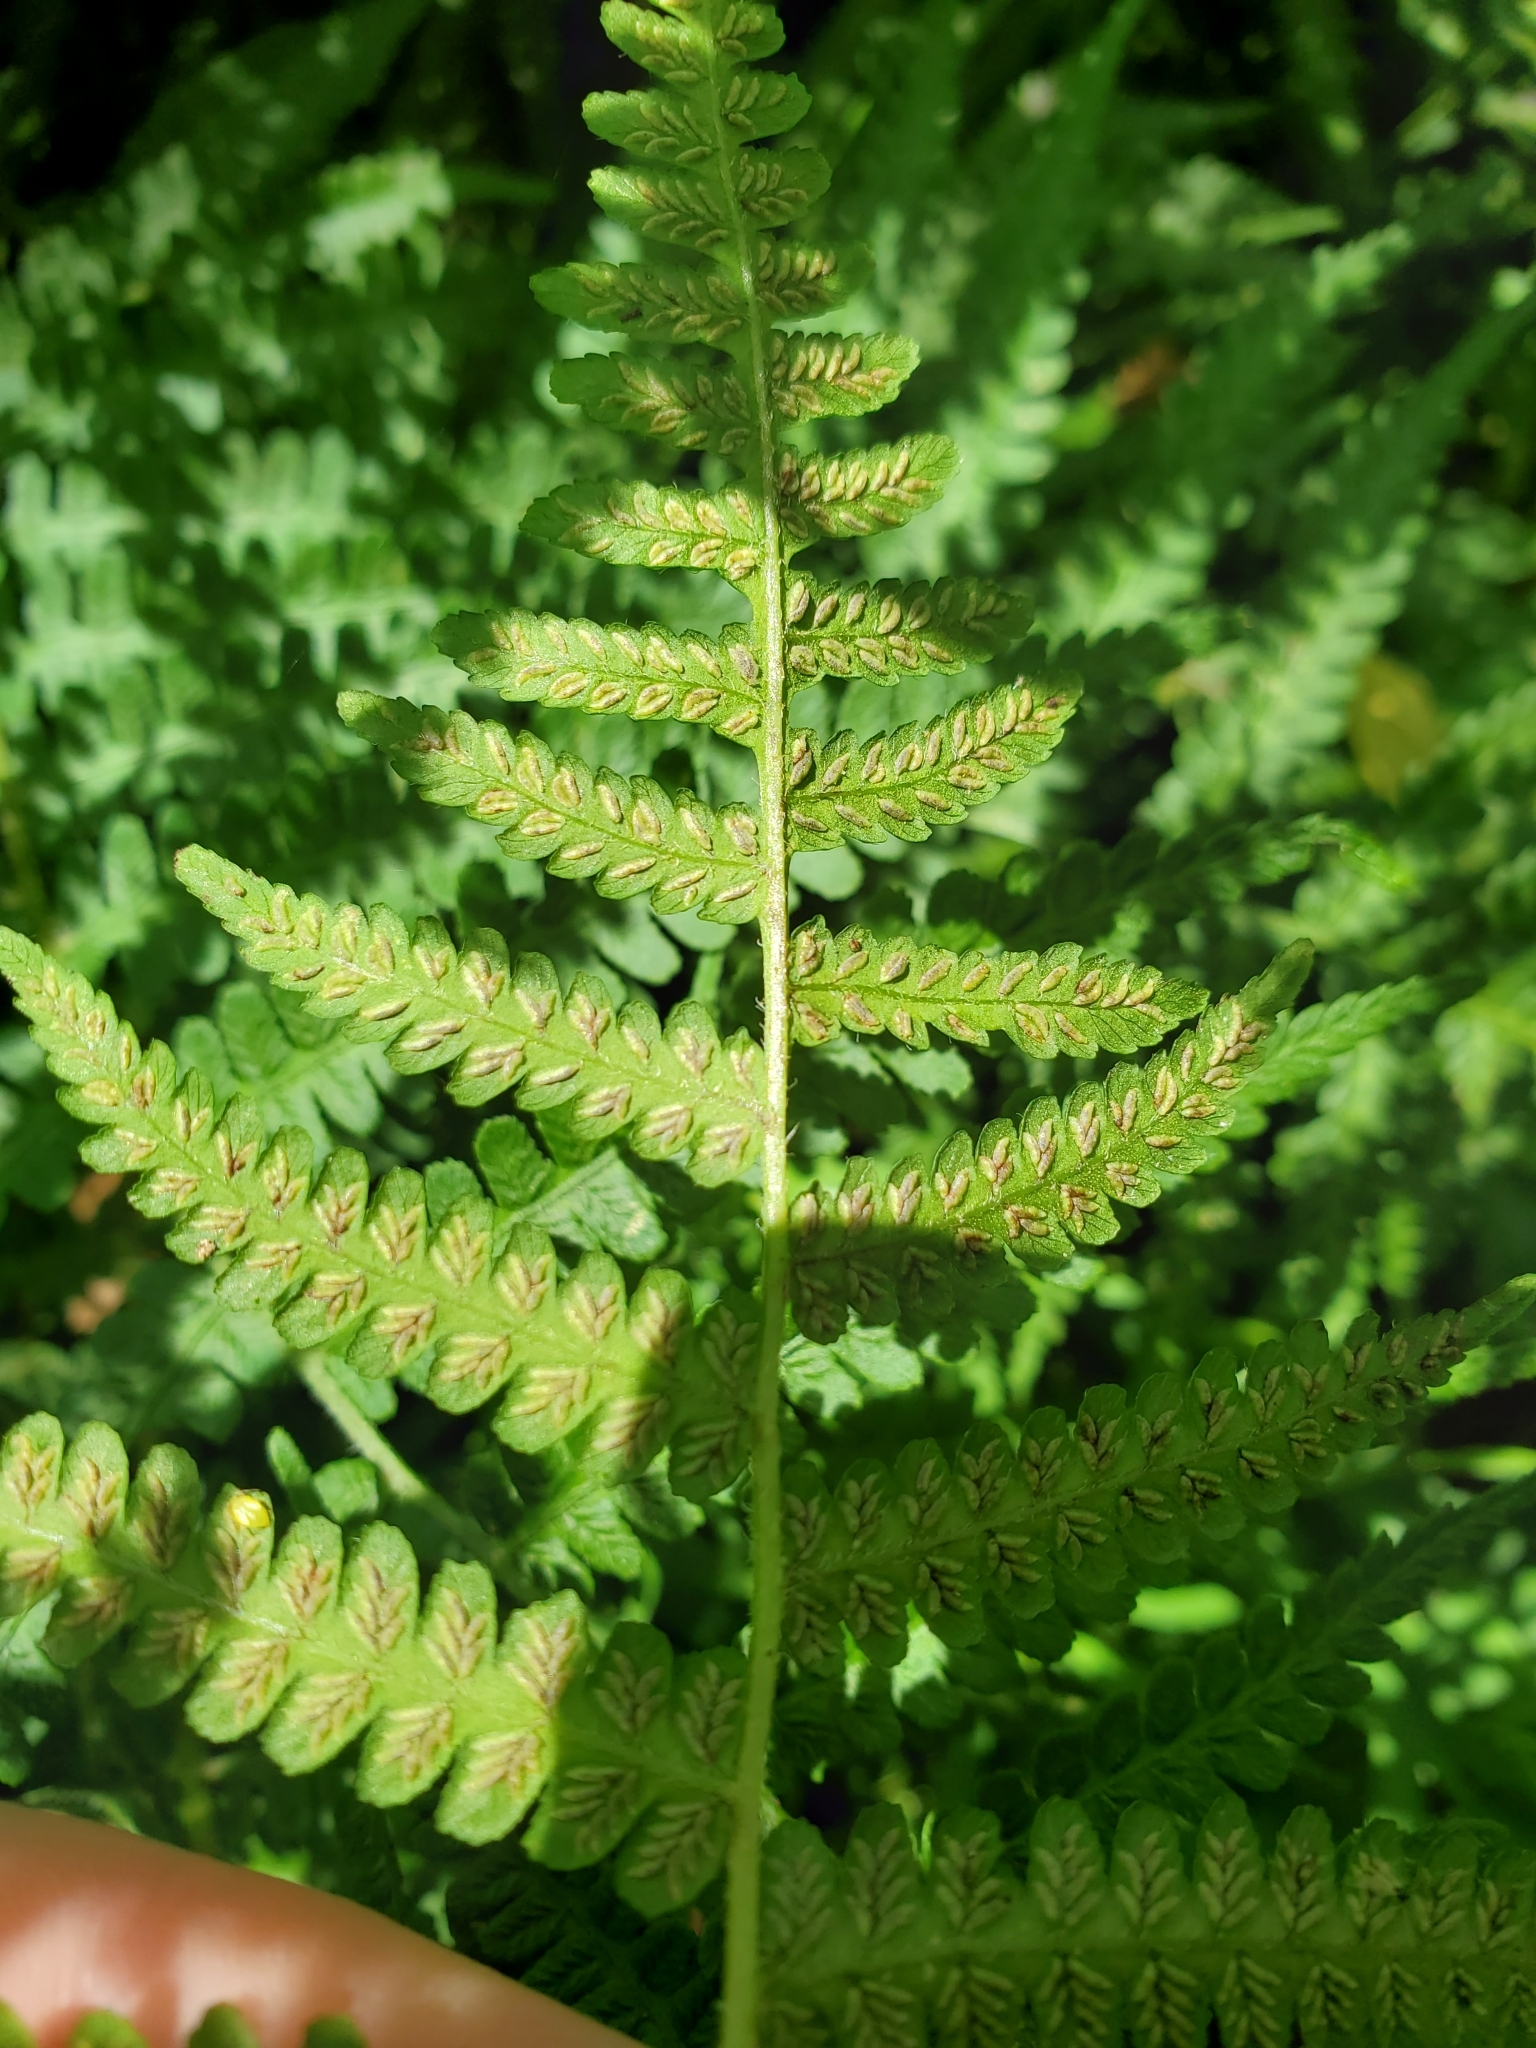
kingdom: Plantae
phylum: Tracheophyta
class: Polypodiopsida
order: Polypodiales
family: Athyriaceae
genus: Deparia
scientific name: Deparia acrostichoides
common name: Silver false spleenwort
